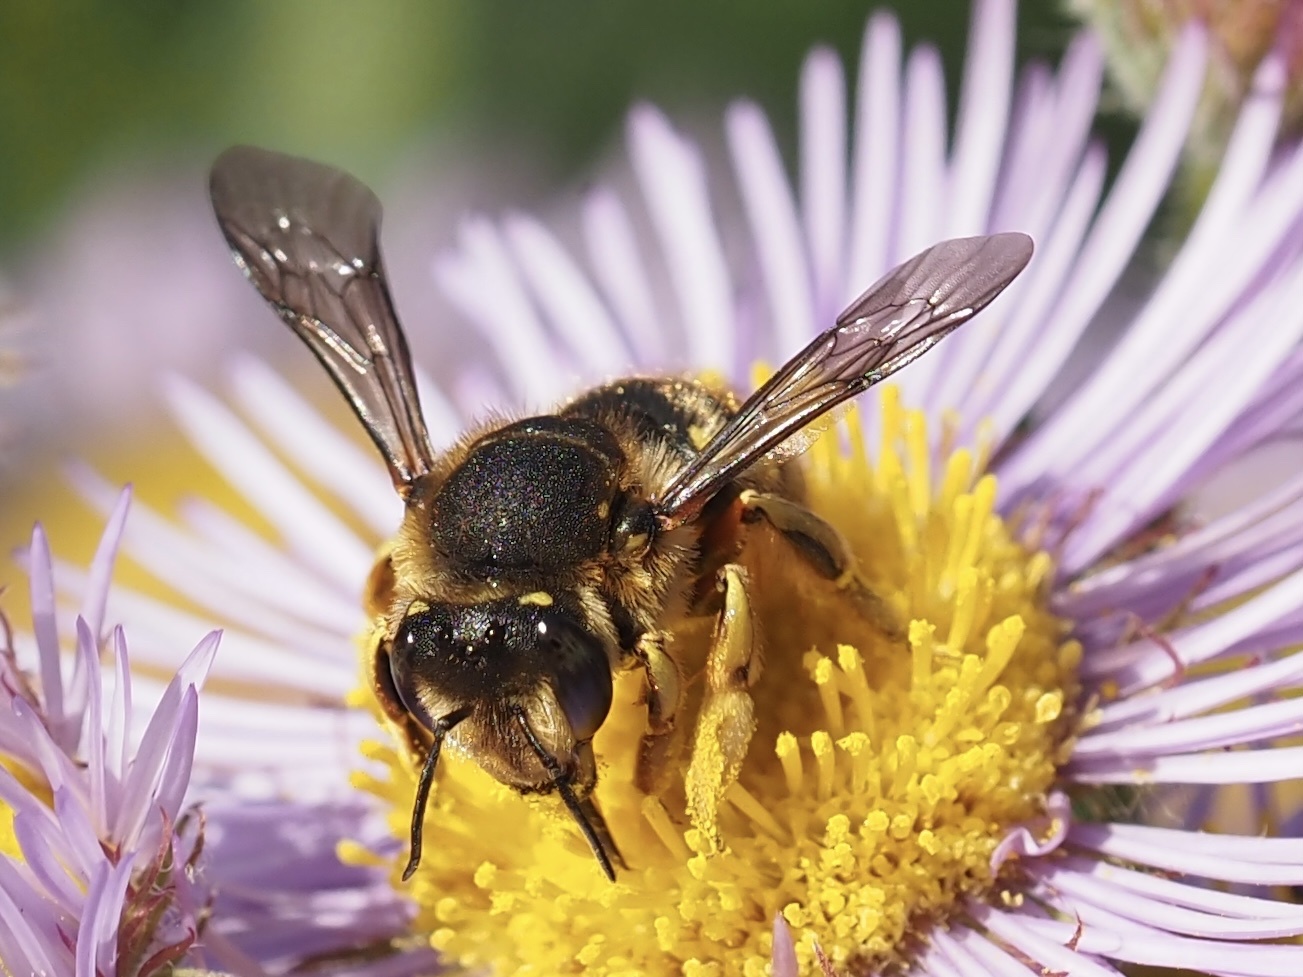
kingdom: Animalia
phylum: Arthropoda
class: Insecta
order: Hymenoptera
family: Megachilidae
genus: Anthidium
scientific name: Anthidium manicatum
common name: Wool carder bee
